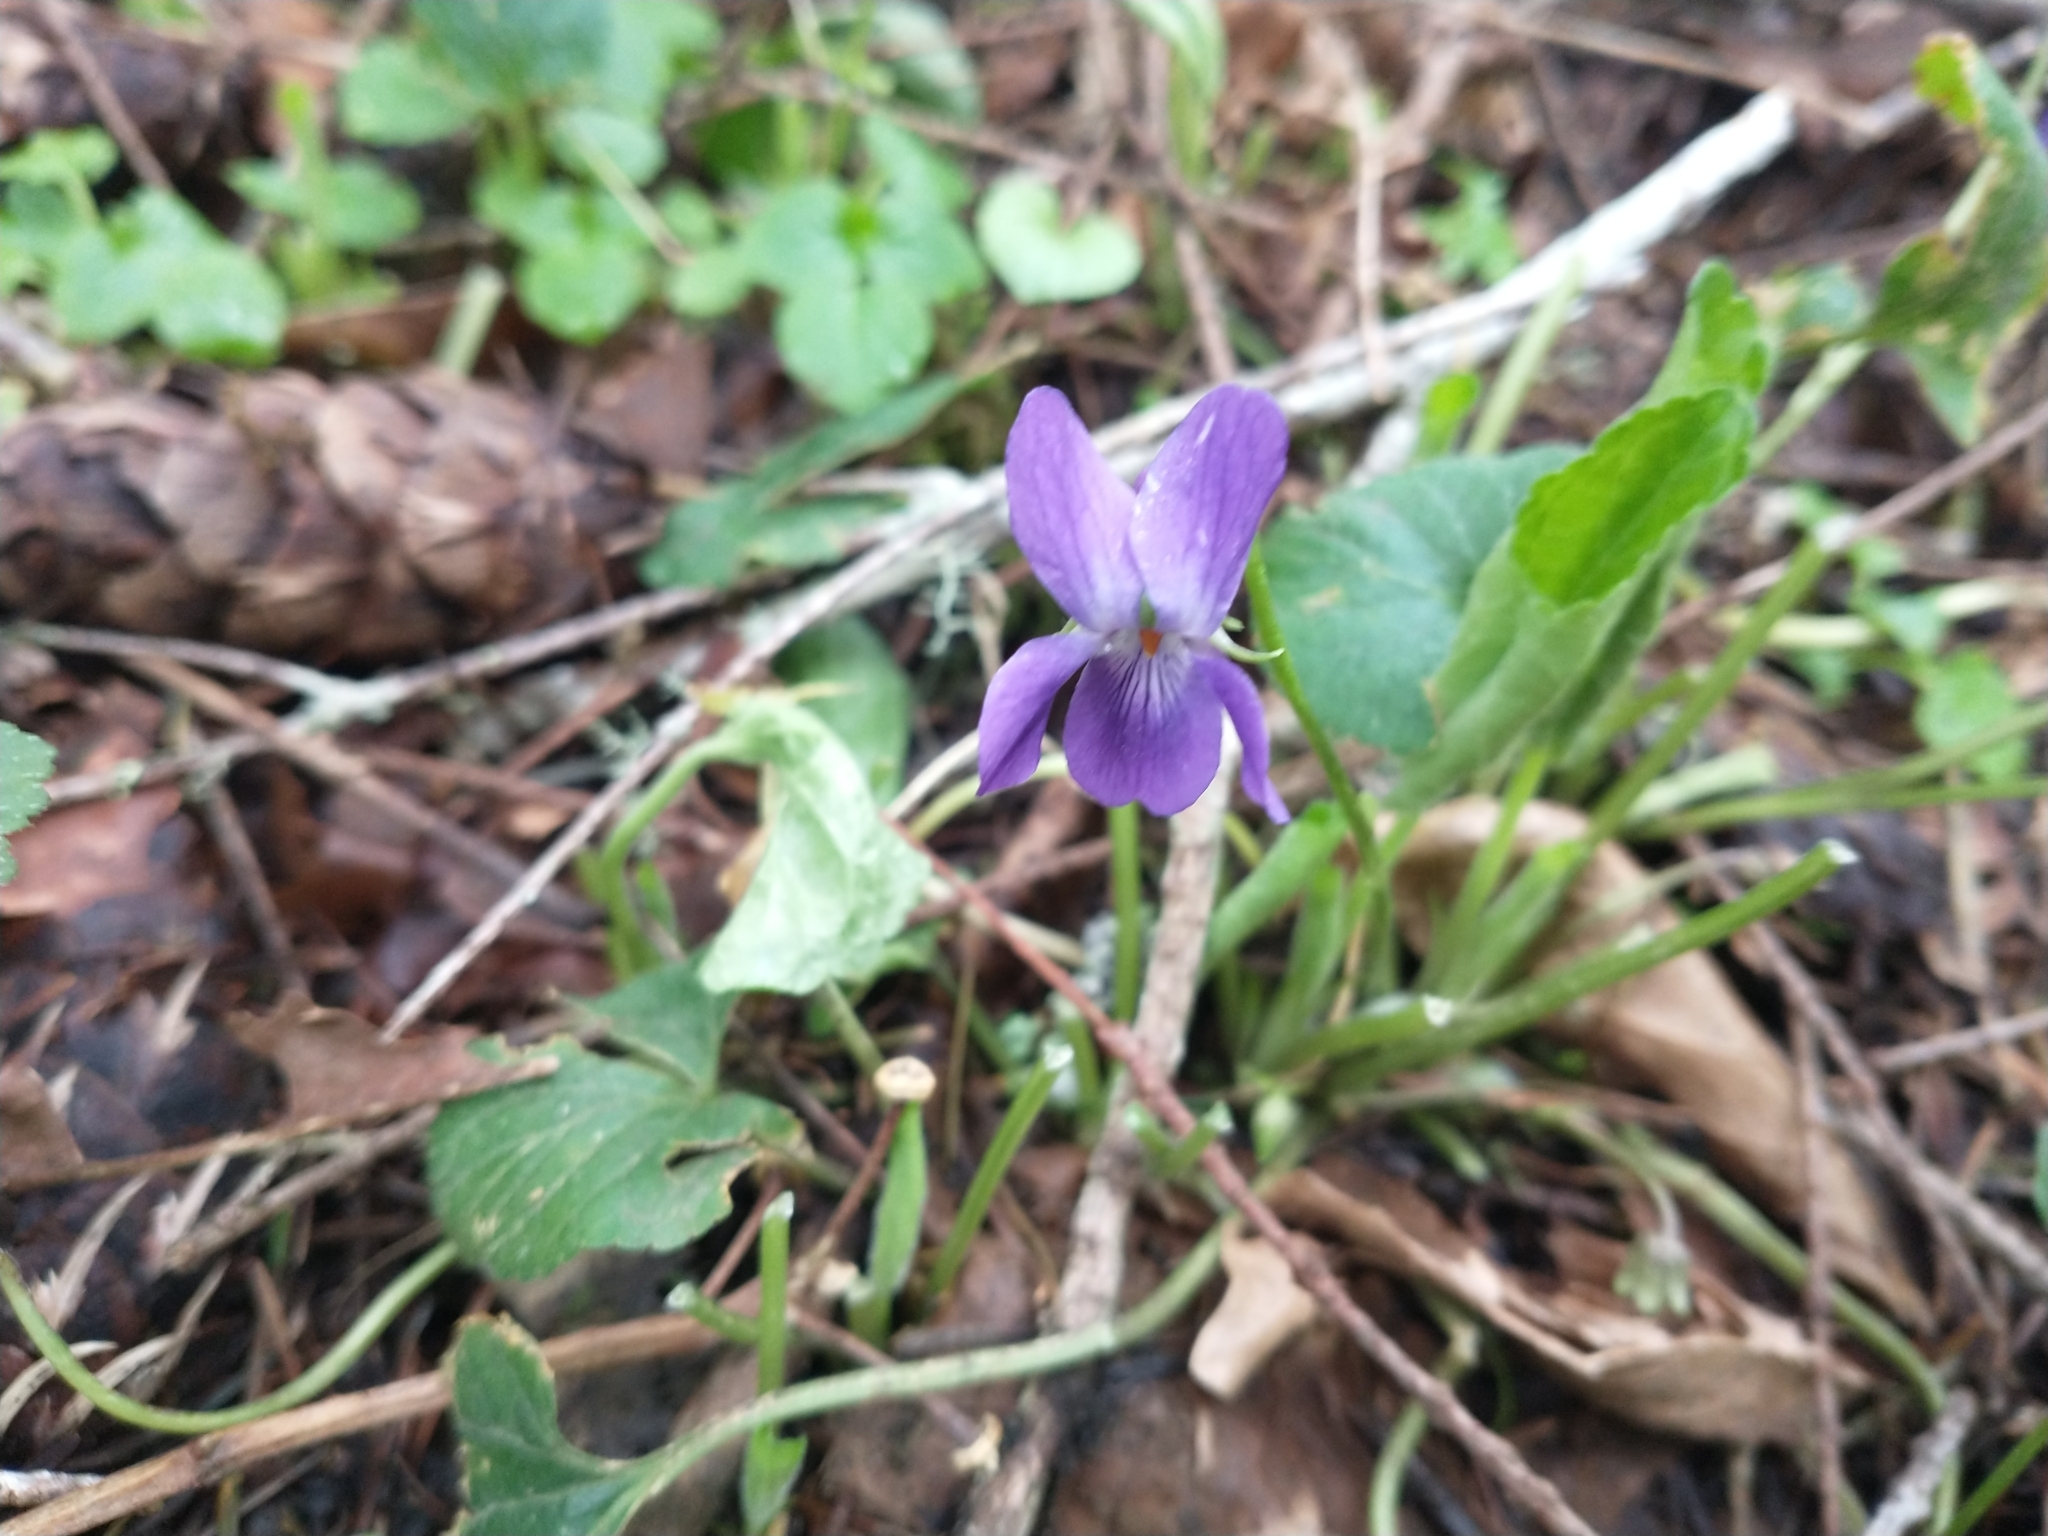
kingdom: Plantae
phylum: Tracheophyta
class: Magnoliopsida
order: Malpighiales
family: Violaceae
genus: Viola
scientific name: Viola odorata
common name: Sweet violet
